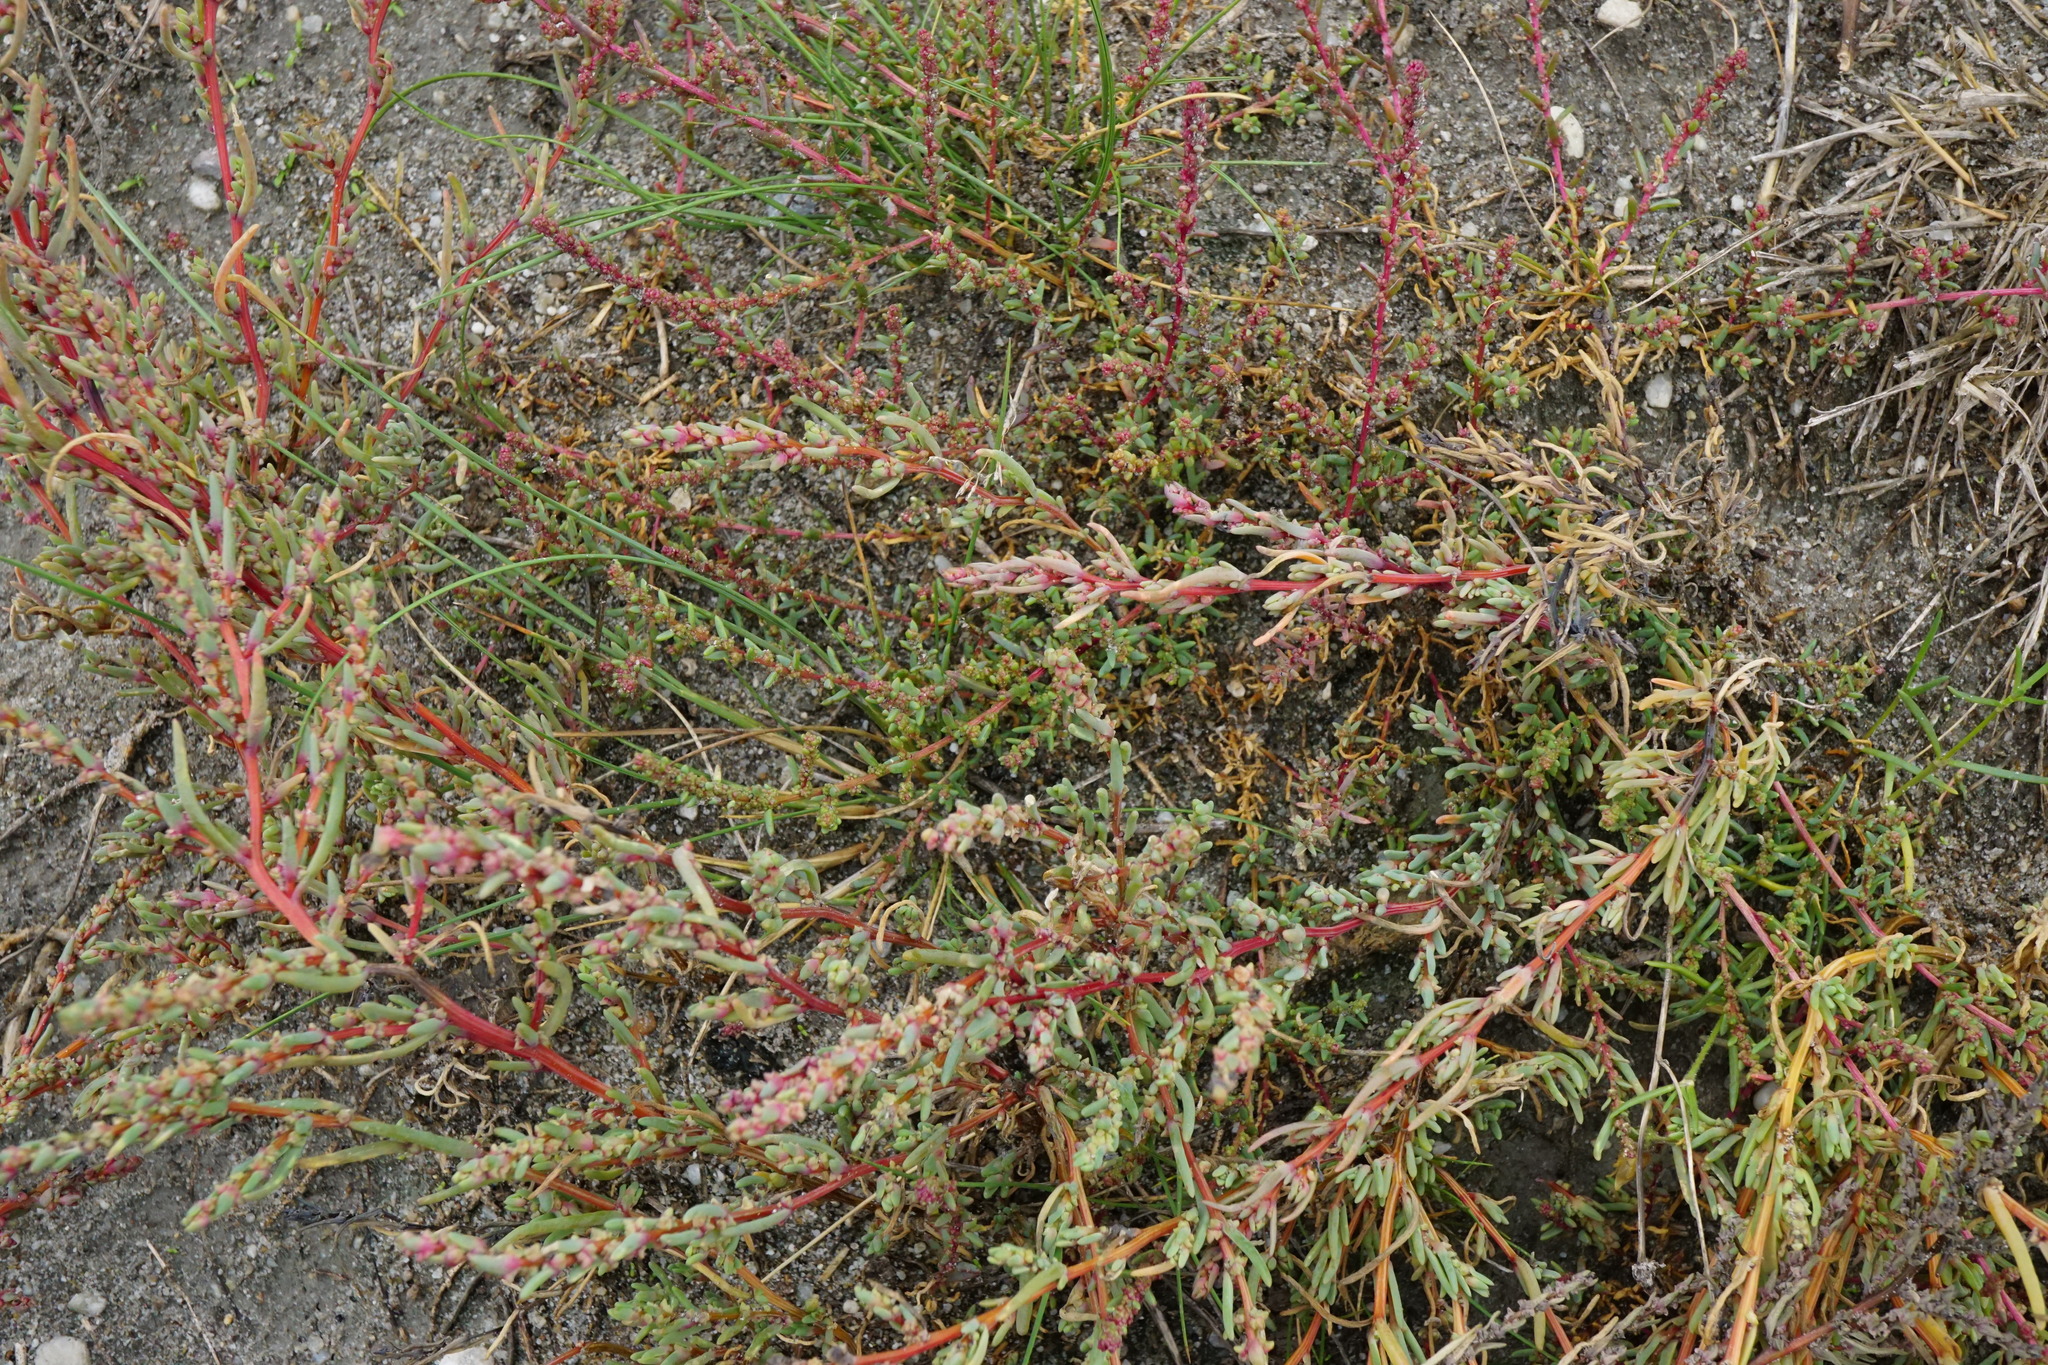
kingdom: Plantae
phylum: Tracheophyta
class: Magnoliopsida
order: Caryophyllales
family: Amaranthaceae
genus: Suaeda
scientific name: Suaeda pannonica
